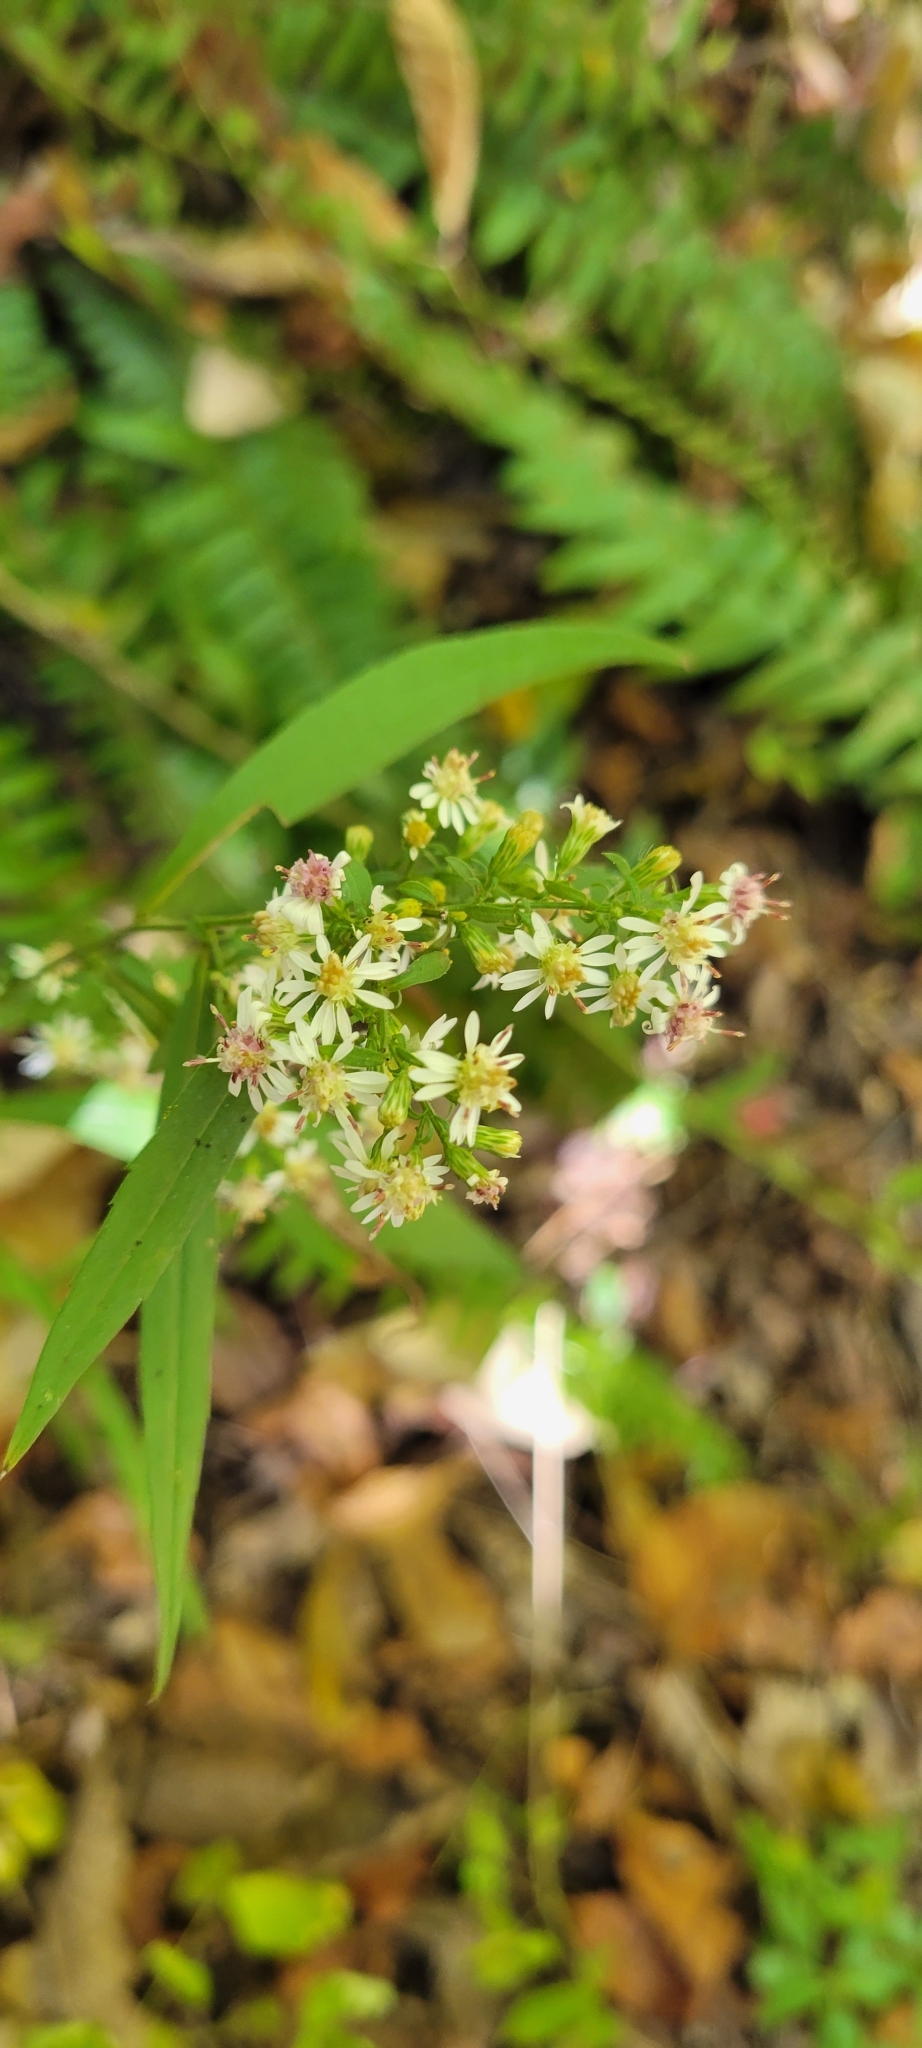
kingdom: Plantae
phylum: Tracheophyta
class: Magnoliopsida
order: Asterales
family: Asteraceae
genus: Symphyotrichum
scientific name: Symphyotrichum lateriflorum
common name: Calico aster
